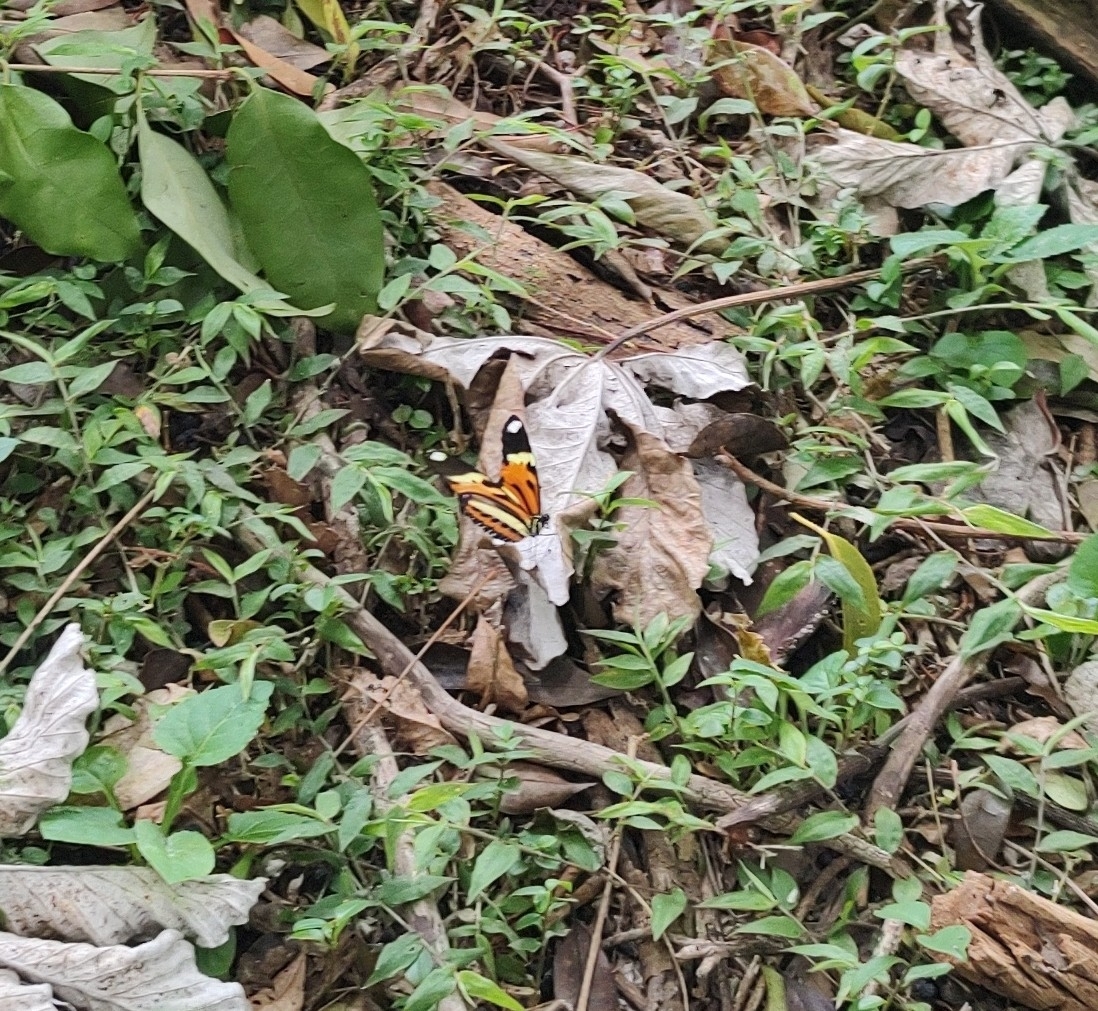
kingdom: Animalia
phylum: Arthropoda
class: Insecta
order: Lepidoptera
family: Nymphalidae
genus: Heliconius
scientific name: Heliconius ethilla
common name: Ethilia longwing
